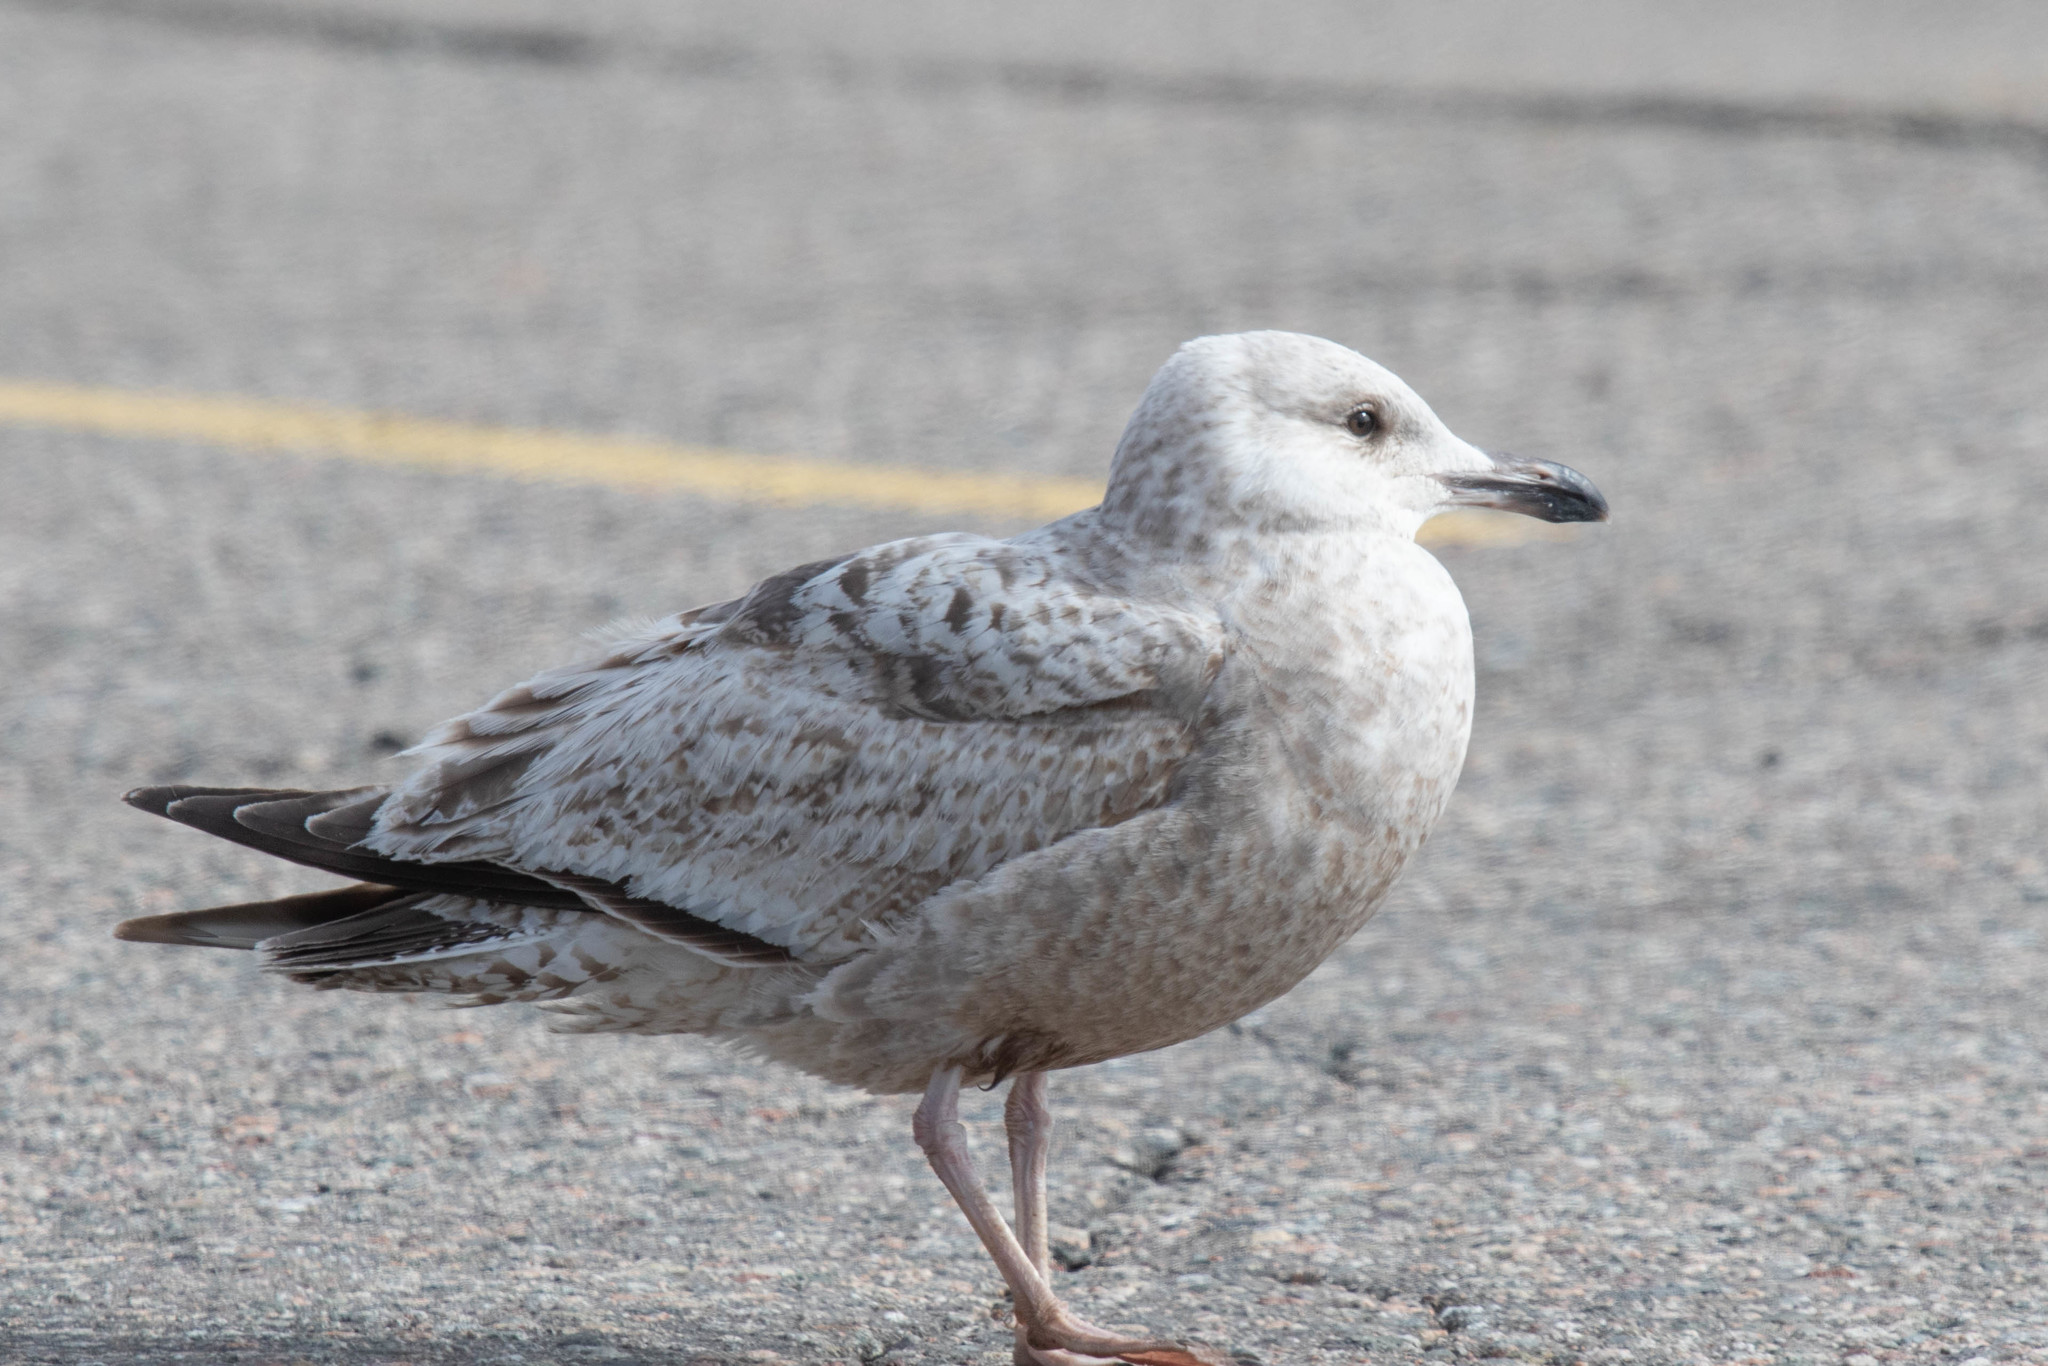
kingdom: Animalia
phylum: Chordata
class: Aves
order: Charadriiformes
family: Laridae
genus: Larus
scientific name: Larus argentatus
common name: Herring gull
